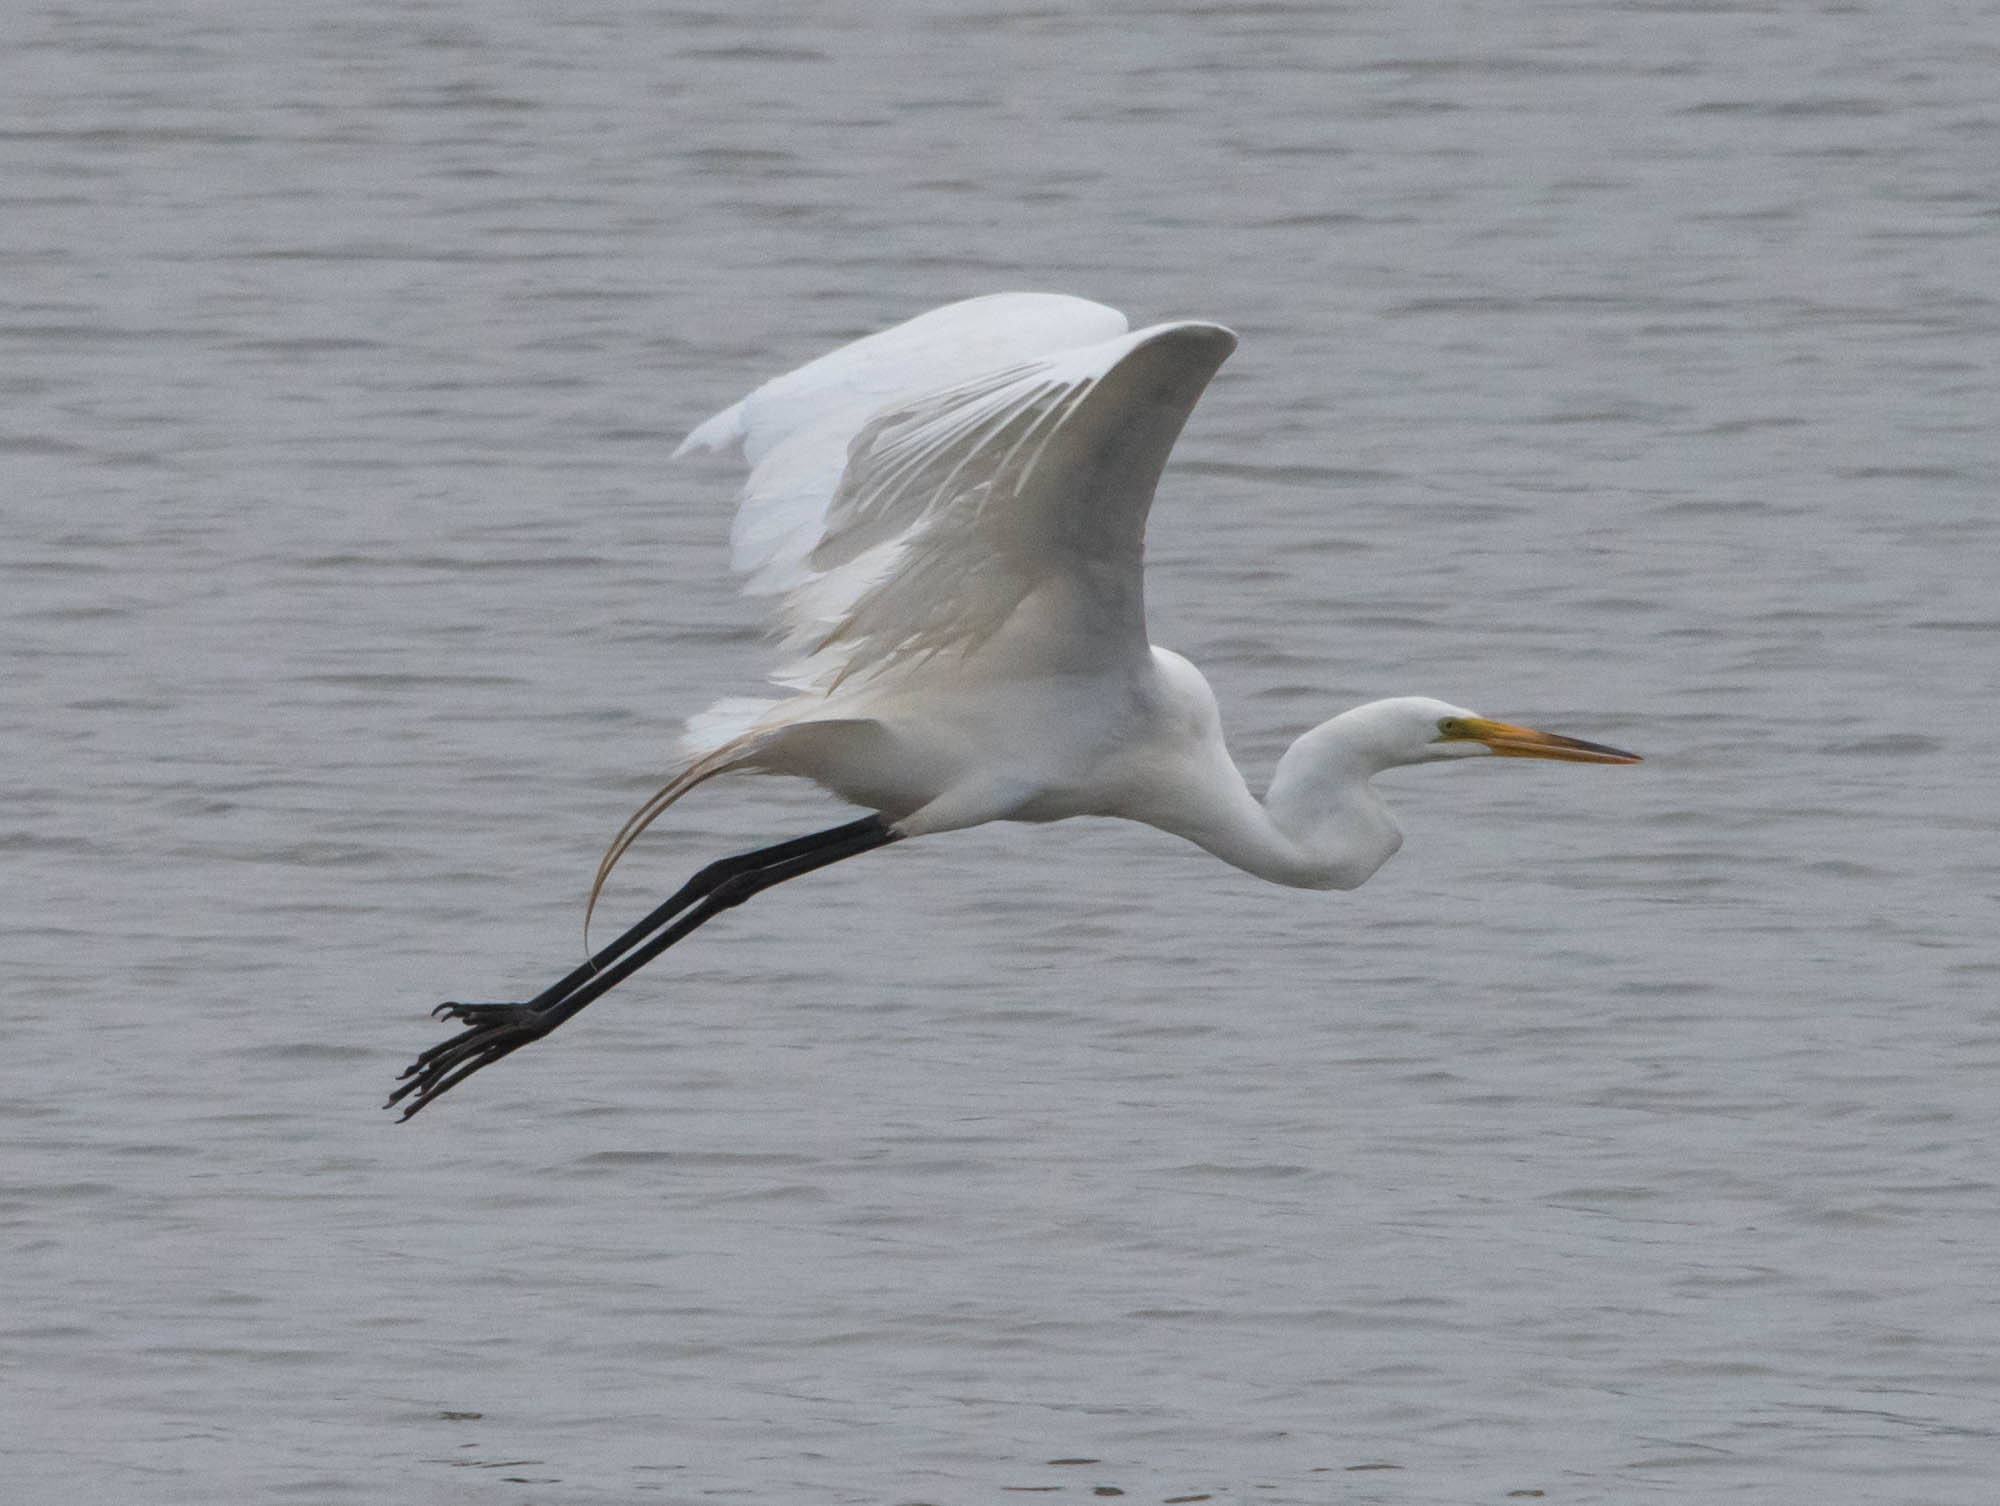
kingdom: Animalia
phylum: Chordata
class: Aves
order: Pelecaniformes
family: Ardeidae
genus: Ardea
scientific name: Ardea alba
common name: Great egret
